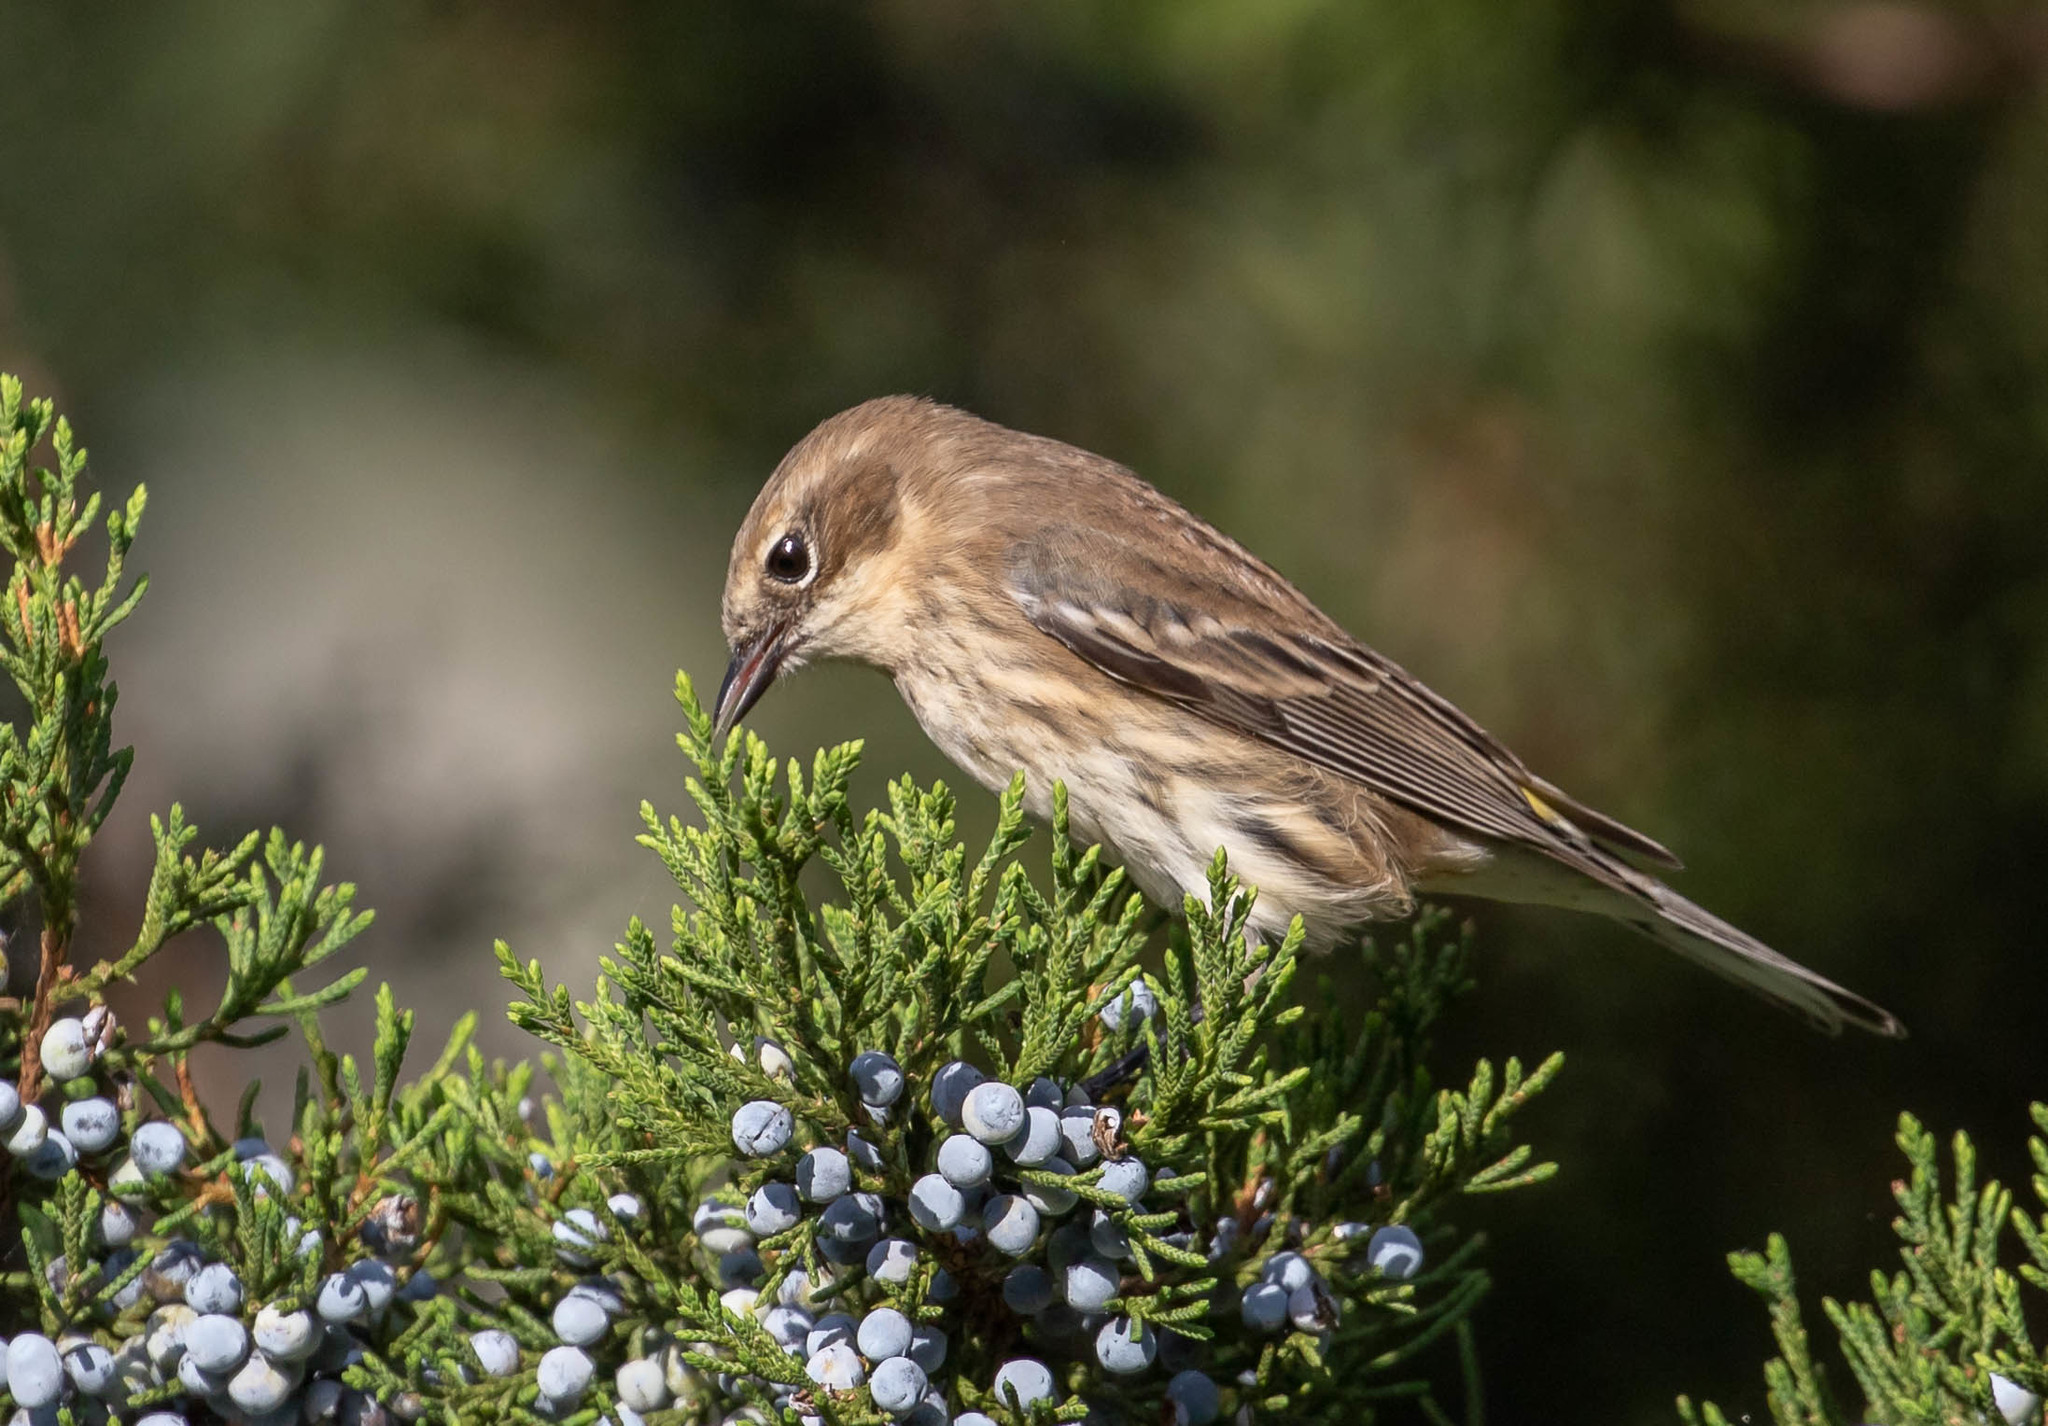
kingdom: Animalia
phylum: Chordata
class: Aves
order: Passeriformes
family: Parulidae
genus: Setophaga
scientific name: Setophaga coronata
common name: Myrtle warbler
